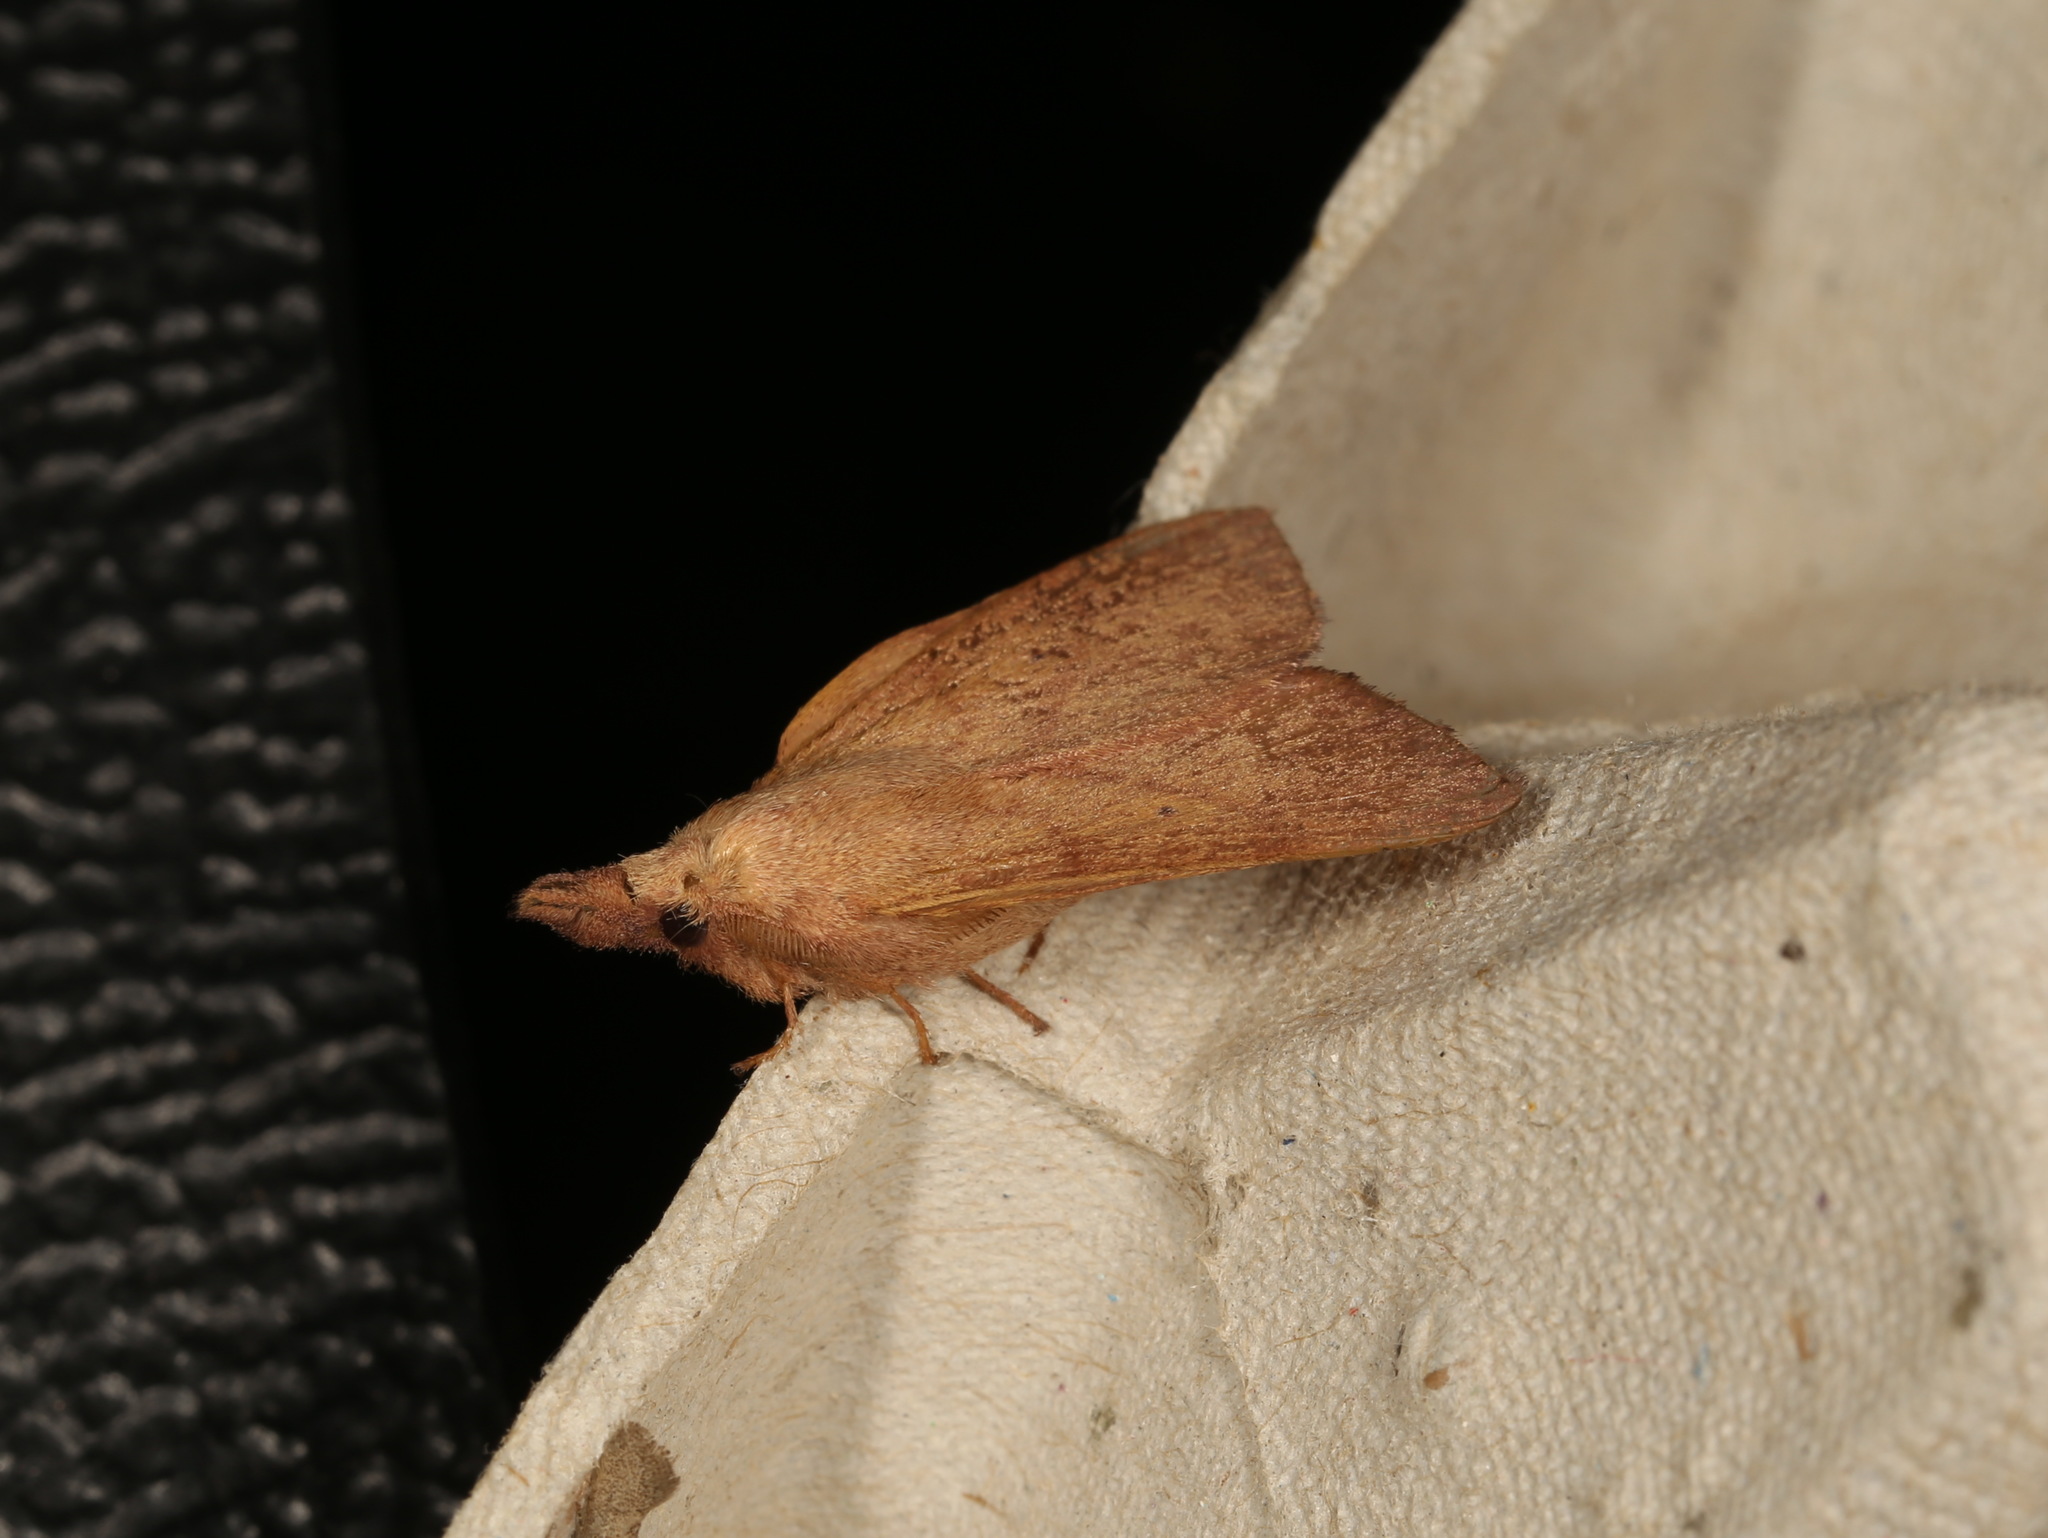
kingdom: Animalia
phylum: Arthropoda
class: Insecta
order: Lepidoptera
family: Lasiocampidae
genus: Pararguda
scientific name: Pararguda nasuta
